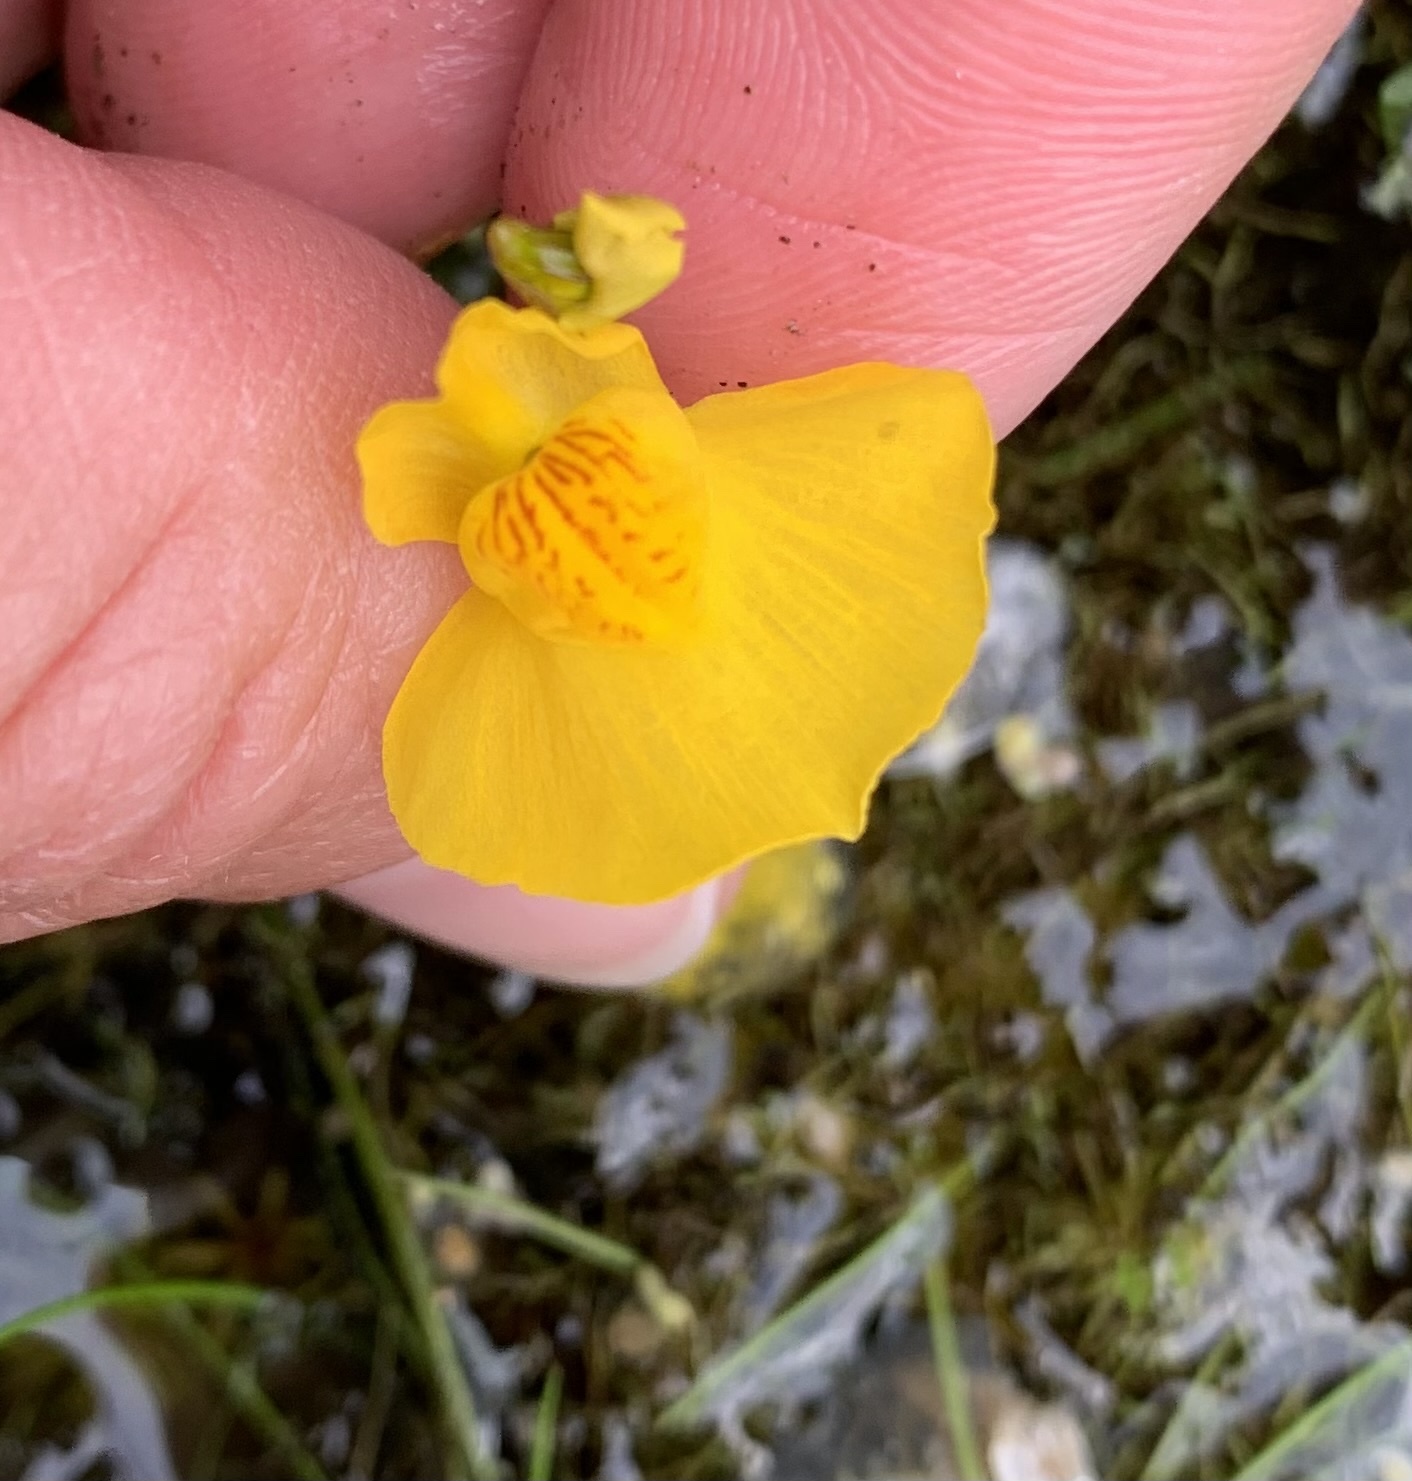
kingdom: Plantae
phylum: Tracheophyta
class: Magnoliopsida
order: Lamiales
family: Lentibulariaceae
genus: Utricularia
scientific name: Utricularia australis
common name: Bladderwort
